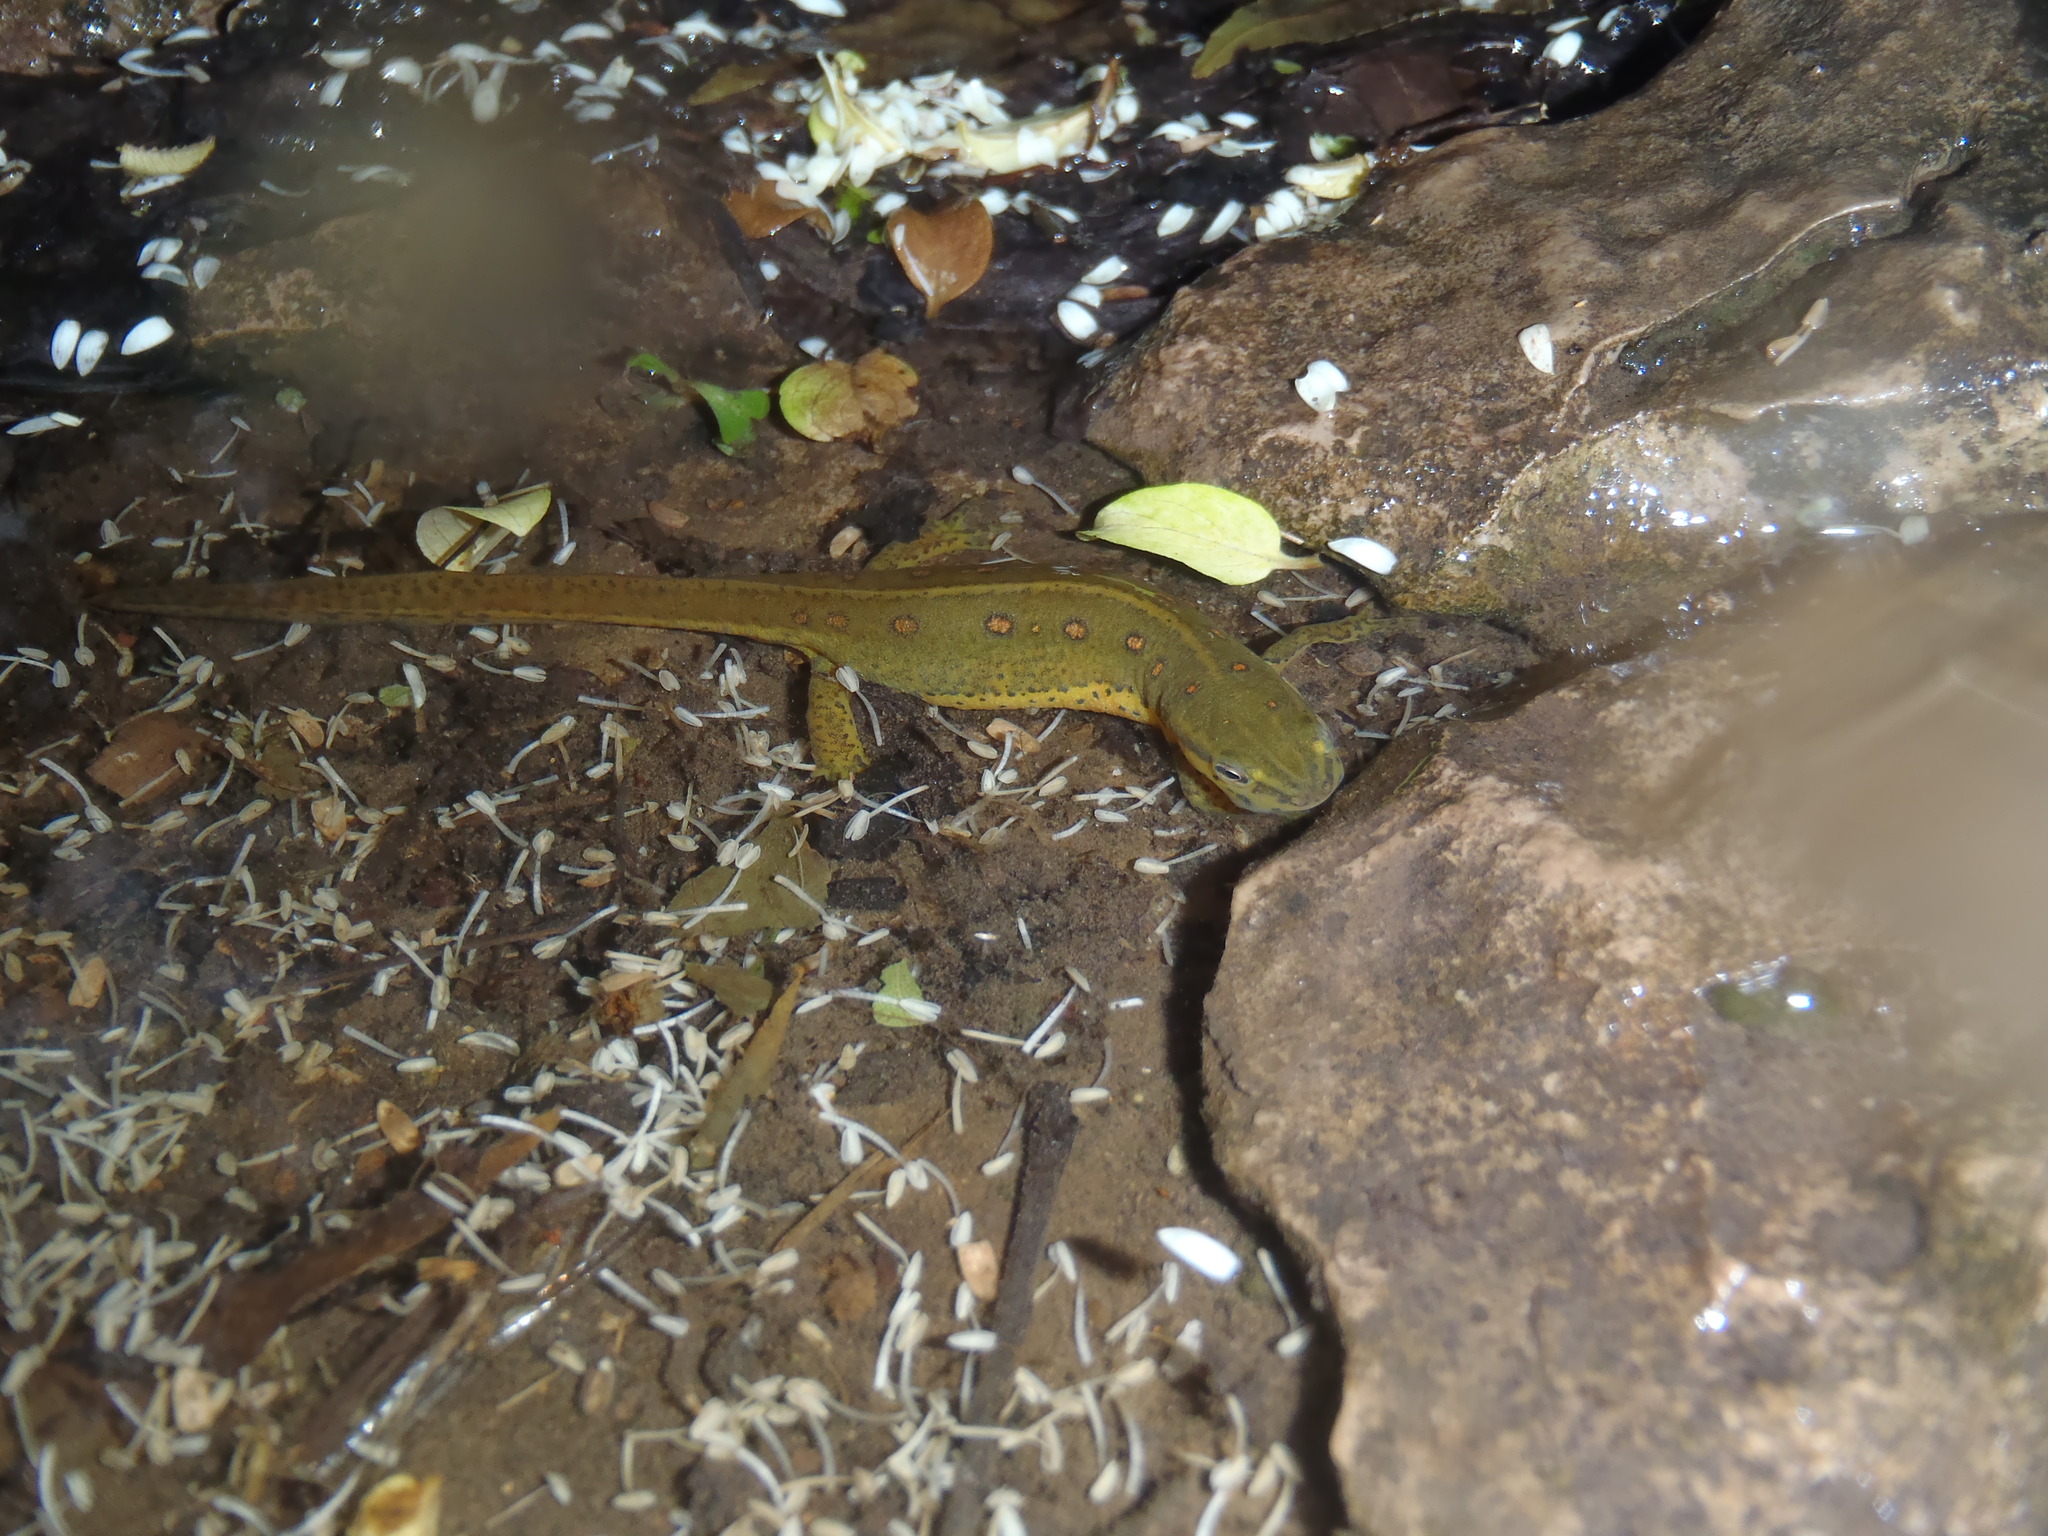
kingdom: Animalia
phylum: Chordata
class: Amphibia
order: Caudata
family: Salamandridae
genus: Notophthalmus
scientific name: Notophthalmus viridescens
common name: Eastern newt
